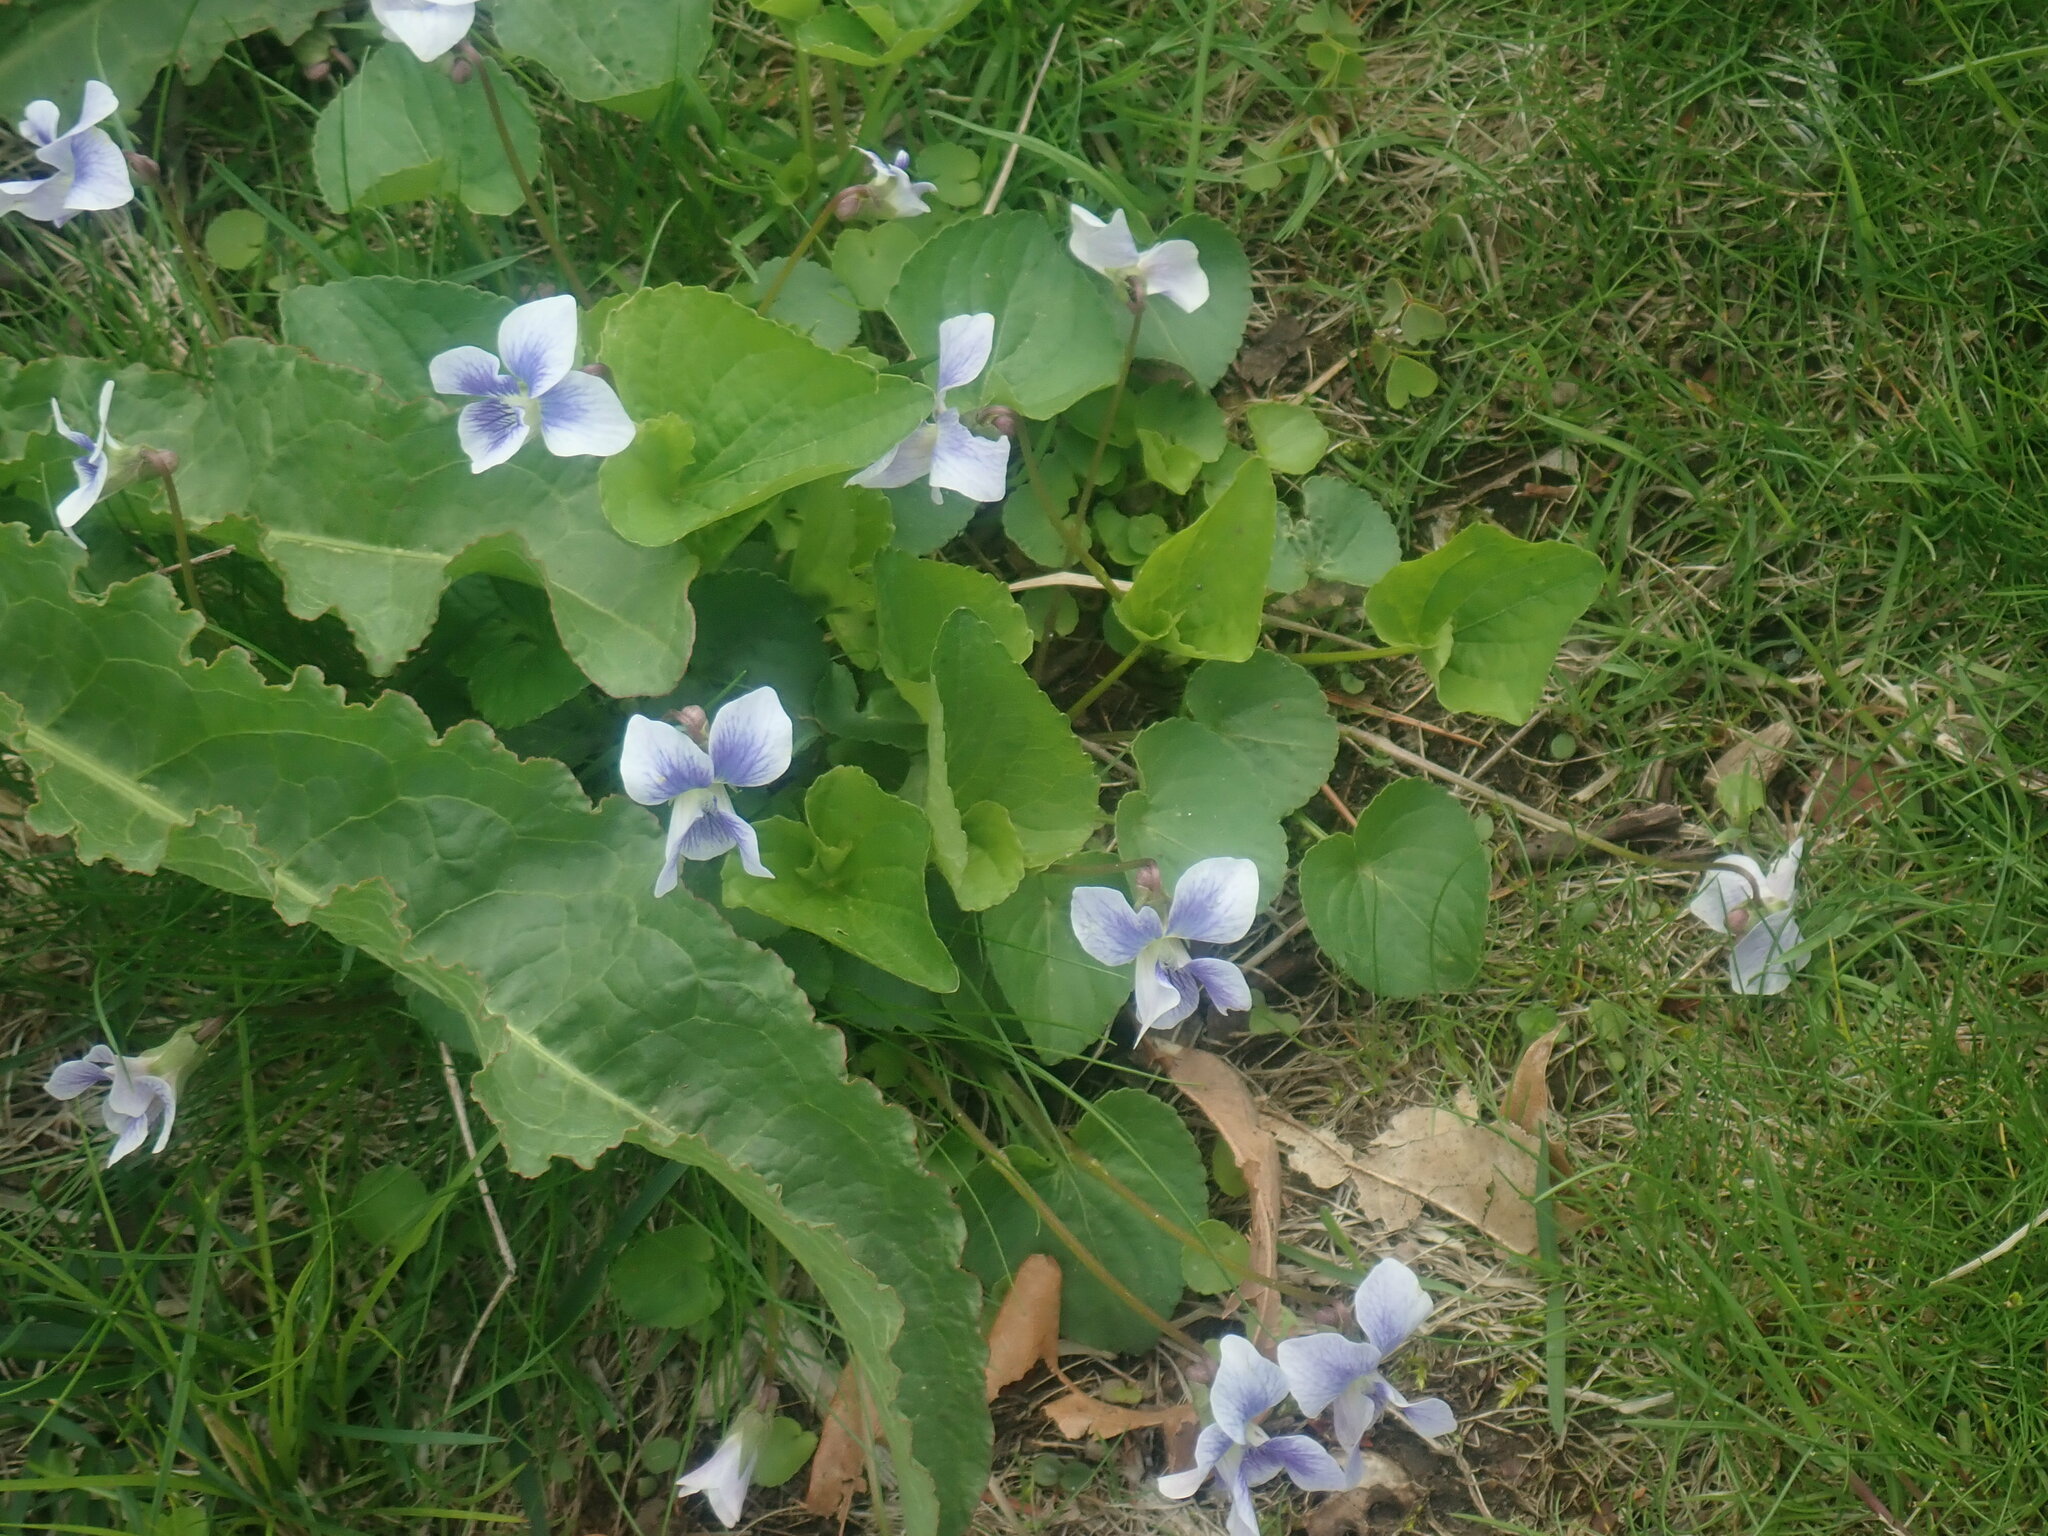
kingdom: Plantae
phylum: Tracheophyta
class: Magnoliopsida
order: Malpighiales
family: Violaceae
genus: Viola
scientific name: Viola sororia
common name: Dooryard violet
